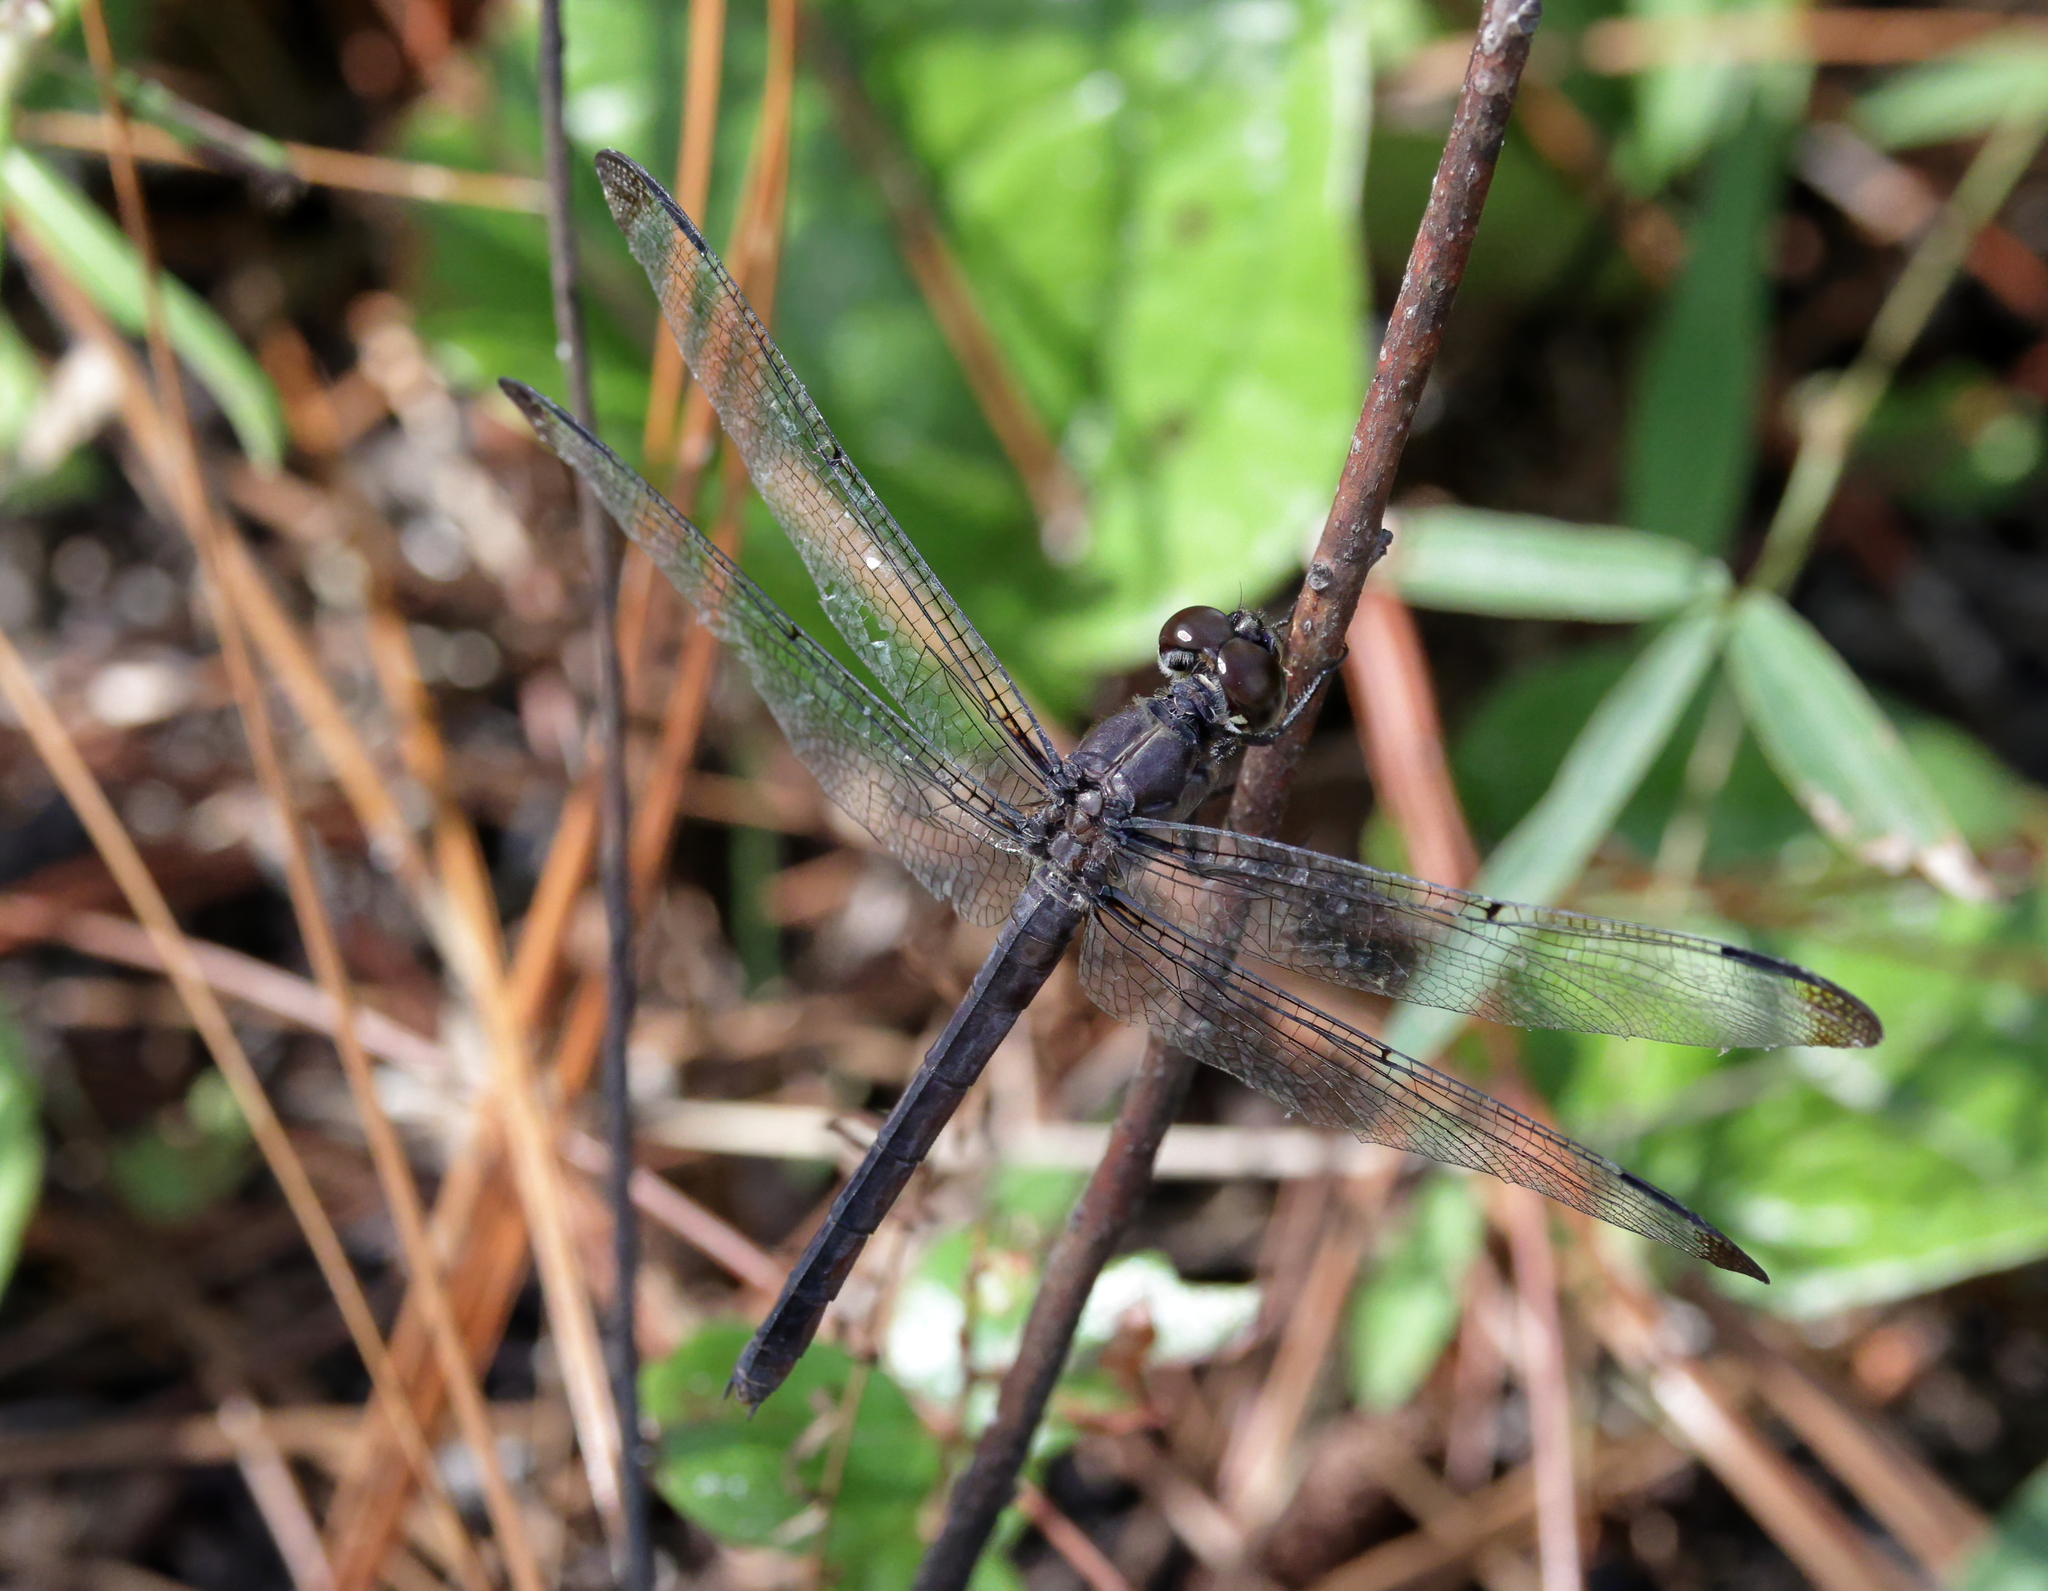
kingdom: Animalia
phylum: Arthropoda
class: Insecta
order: Odonata
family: Libellulidae
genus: Libellula
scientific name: Libellula incesta
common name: Slaty skimmer
